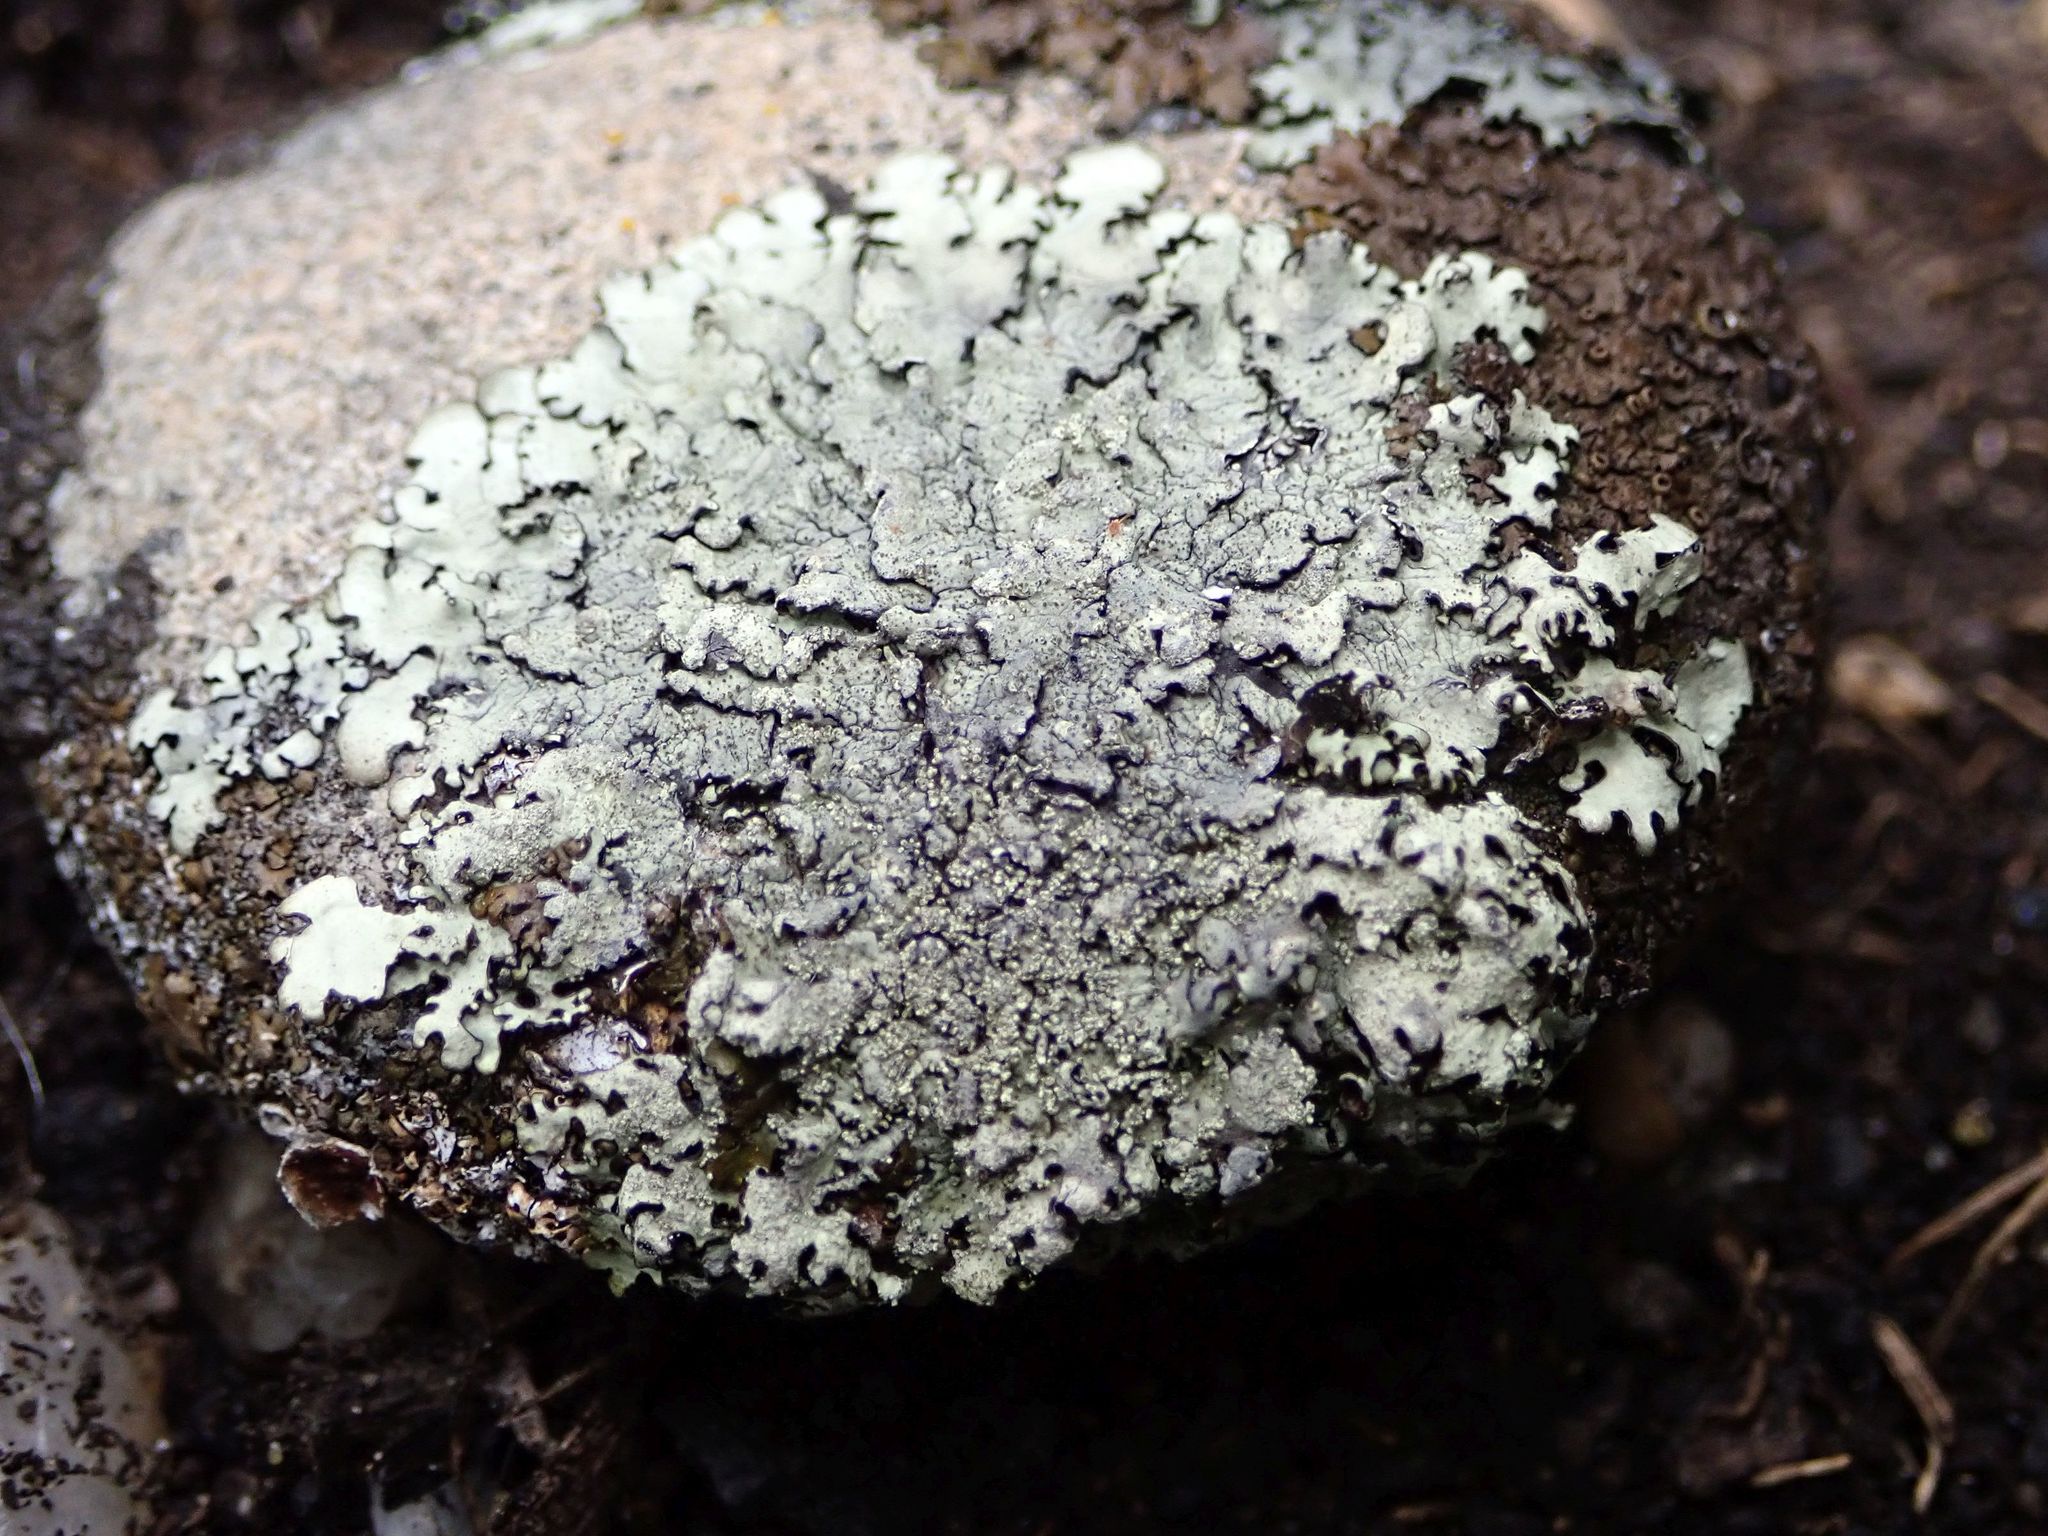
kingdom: Fungi
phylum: Ascomycota
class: Lecanoromycetes
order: Lecanorales
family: Parmeliaceae
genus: Xanthoparmelia
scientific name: Xanthoparmelia scabrosa
